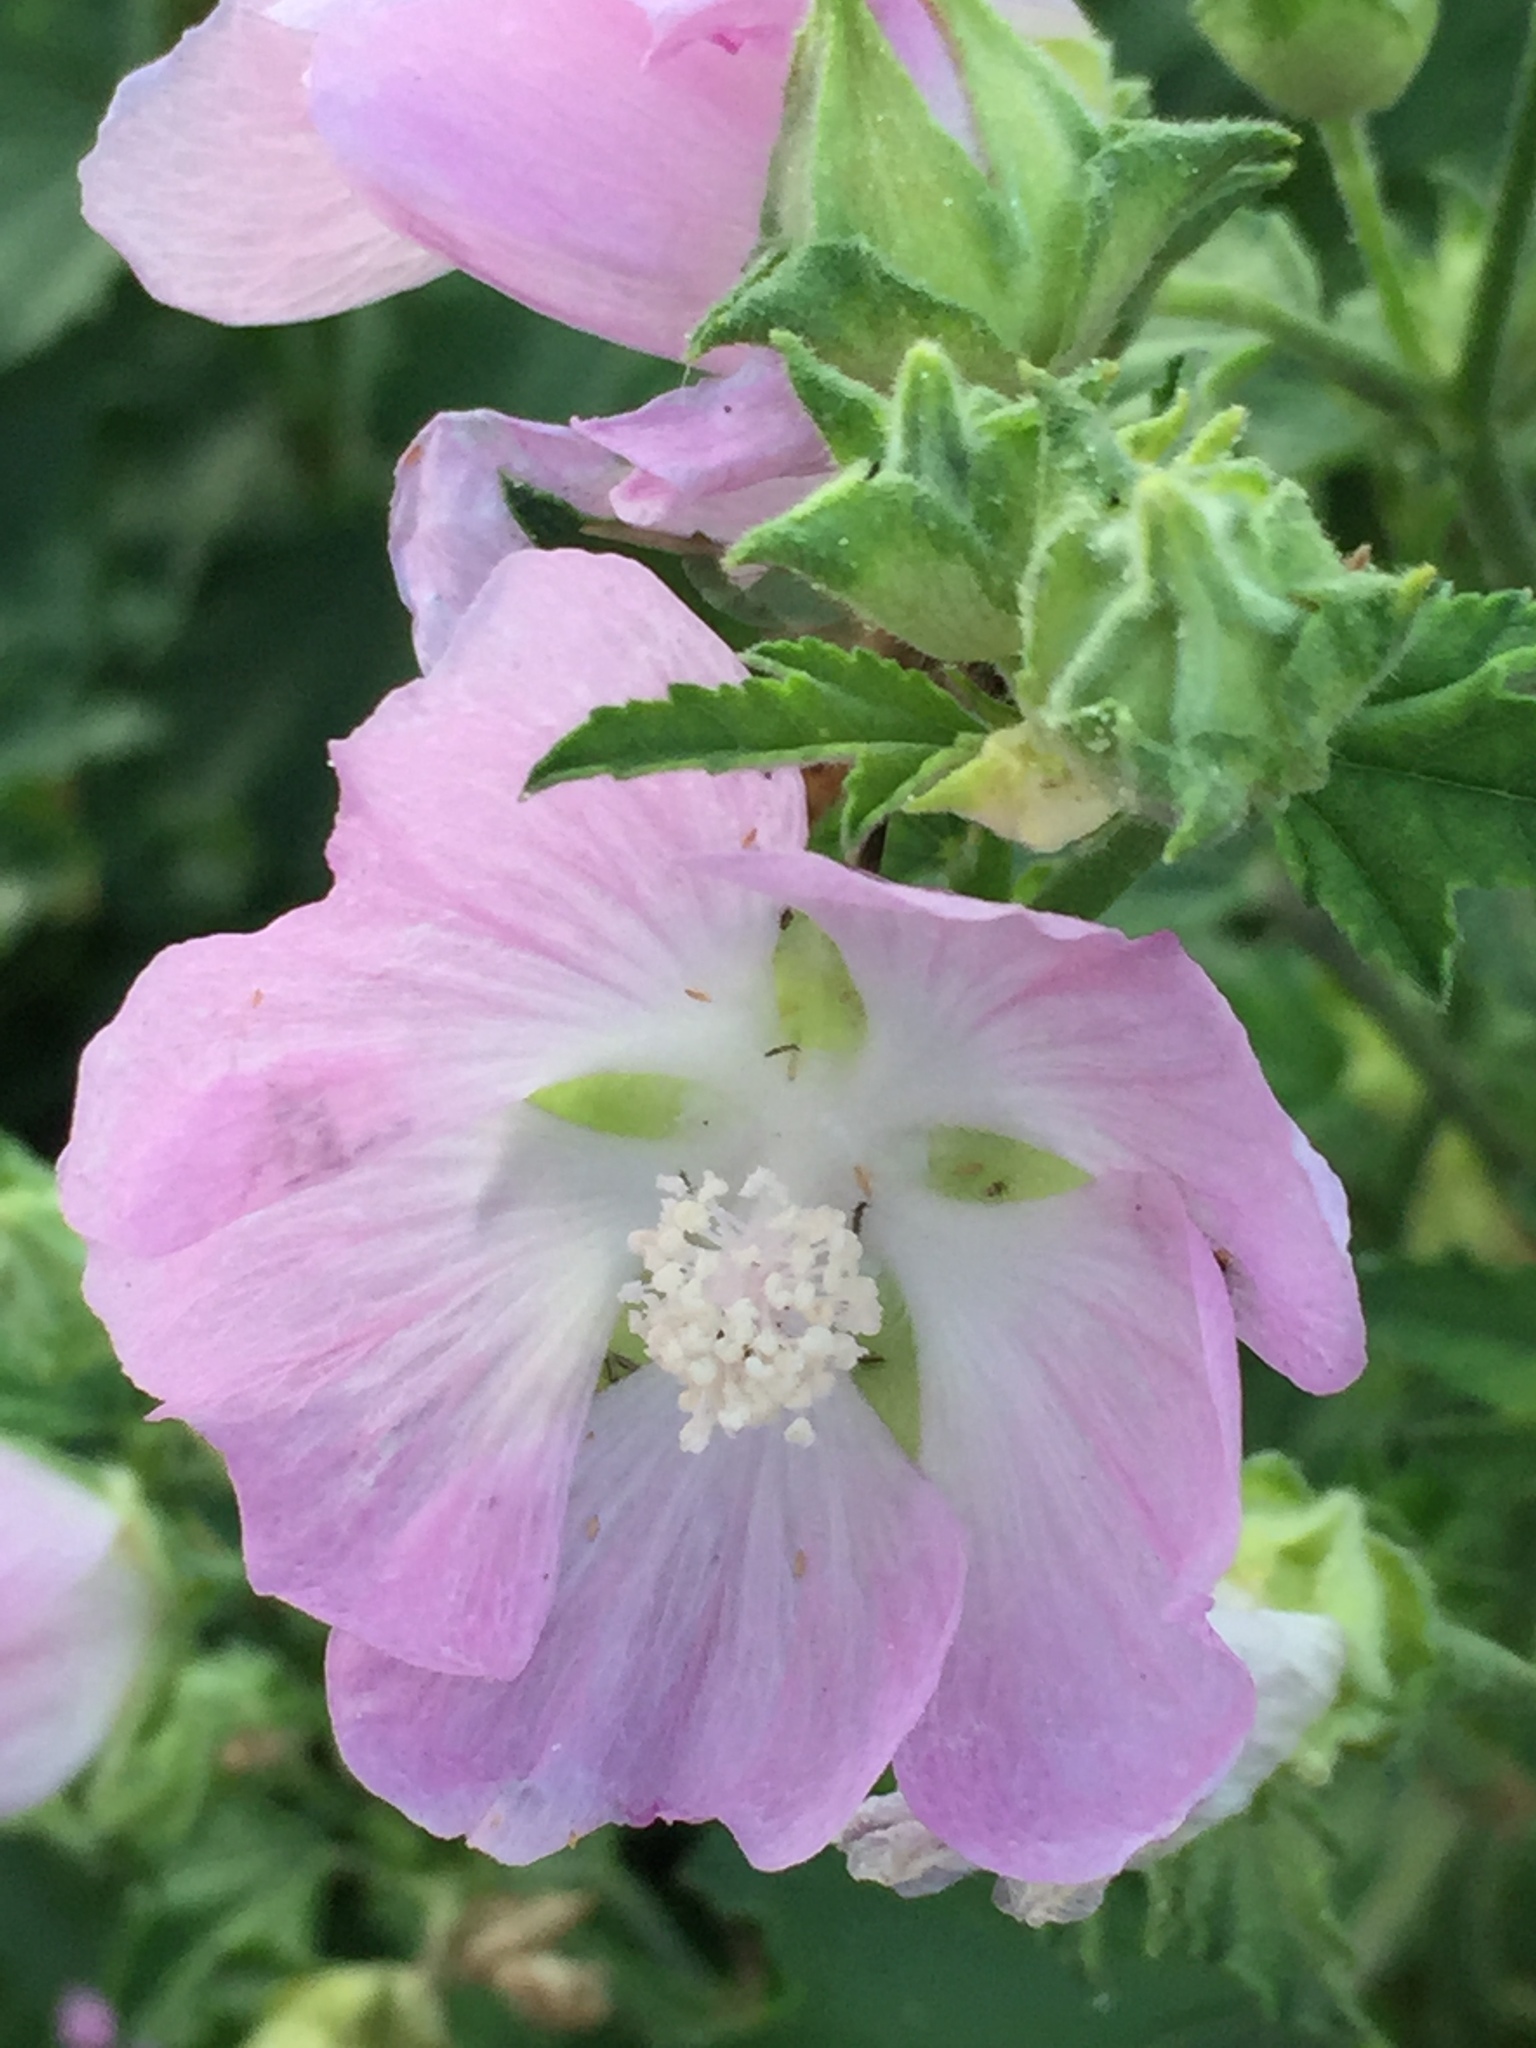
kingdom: Plantae
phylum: Tracheophyta
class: Magnoliopsida
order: Malvales
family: Malvaceae
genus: Malva
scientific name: Malva thuringiaca
